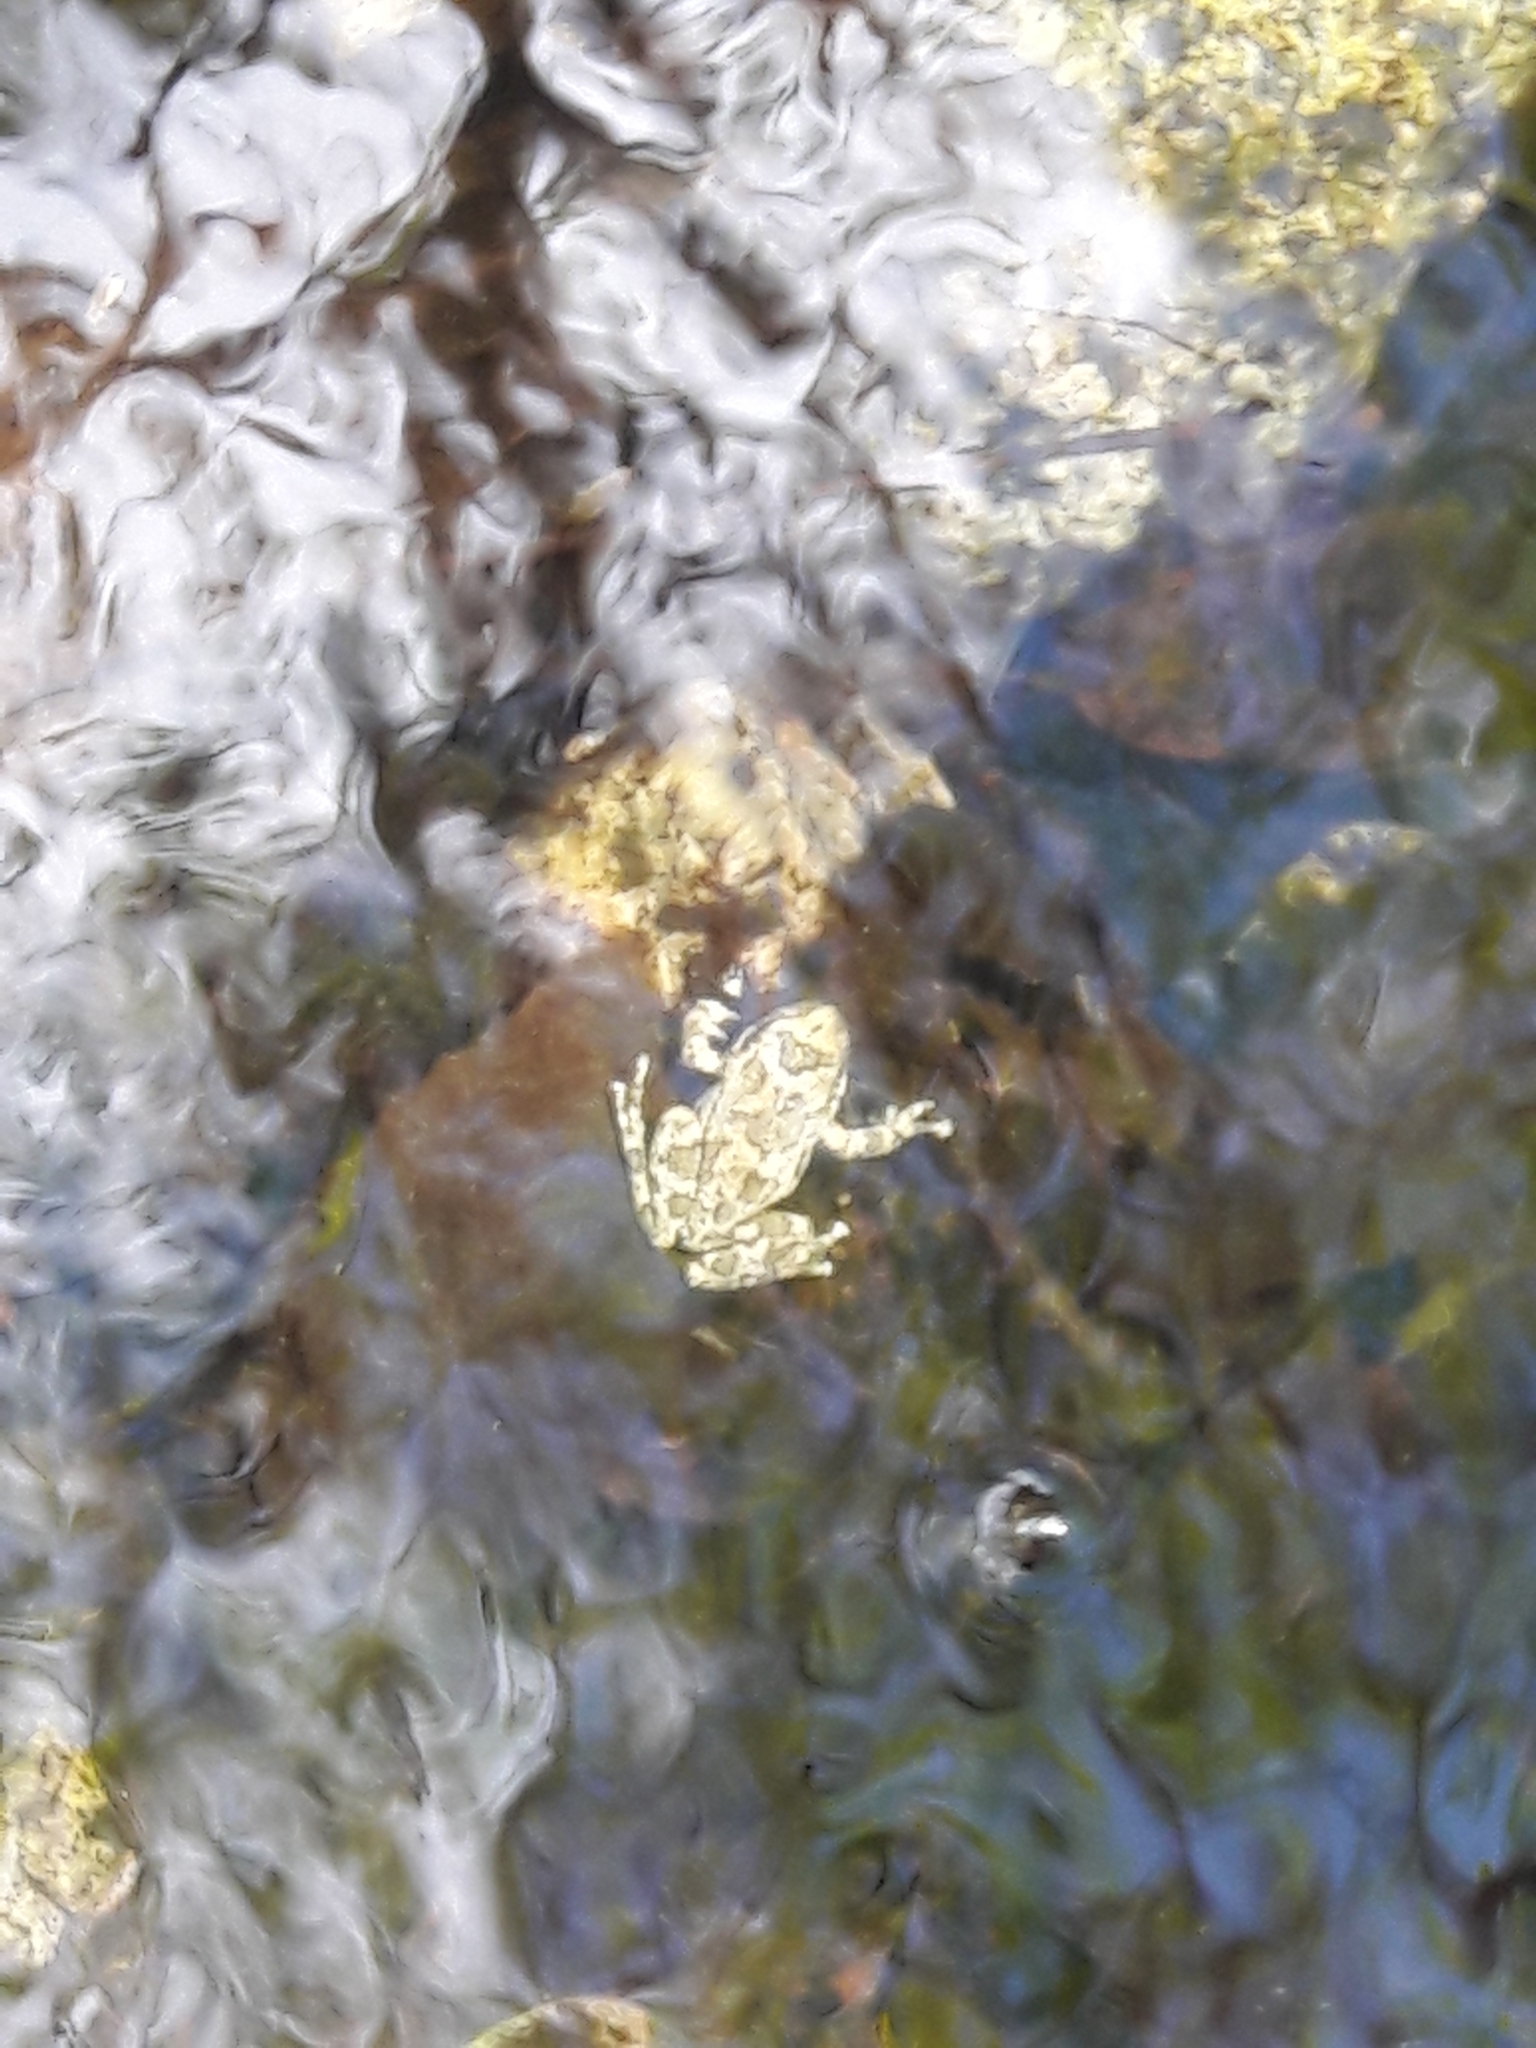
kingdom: Animalia
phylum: Chordata
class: Amphibia
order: Anura
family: Hylidae
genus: Pseudacris
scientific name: Pseudacris cadaverina
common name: California chorus frog
